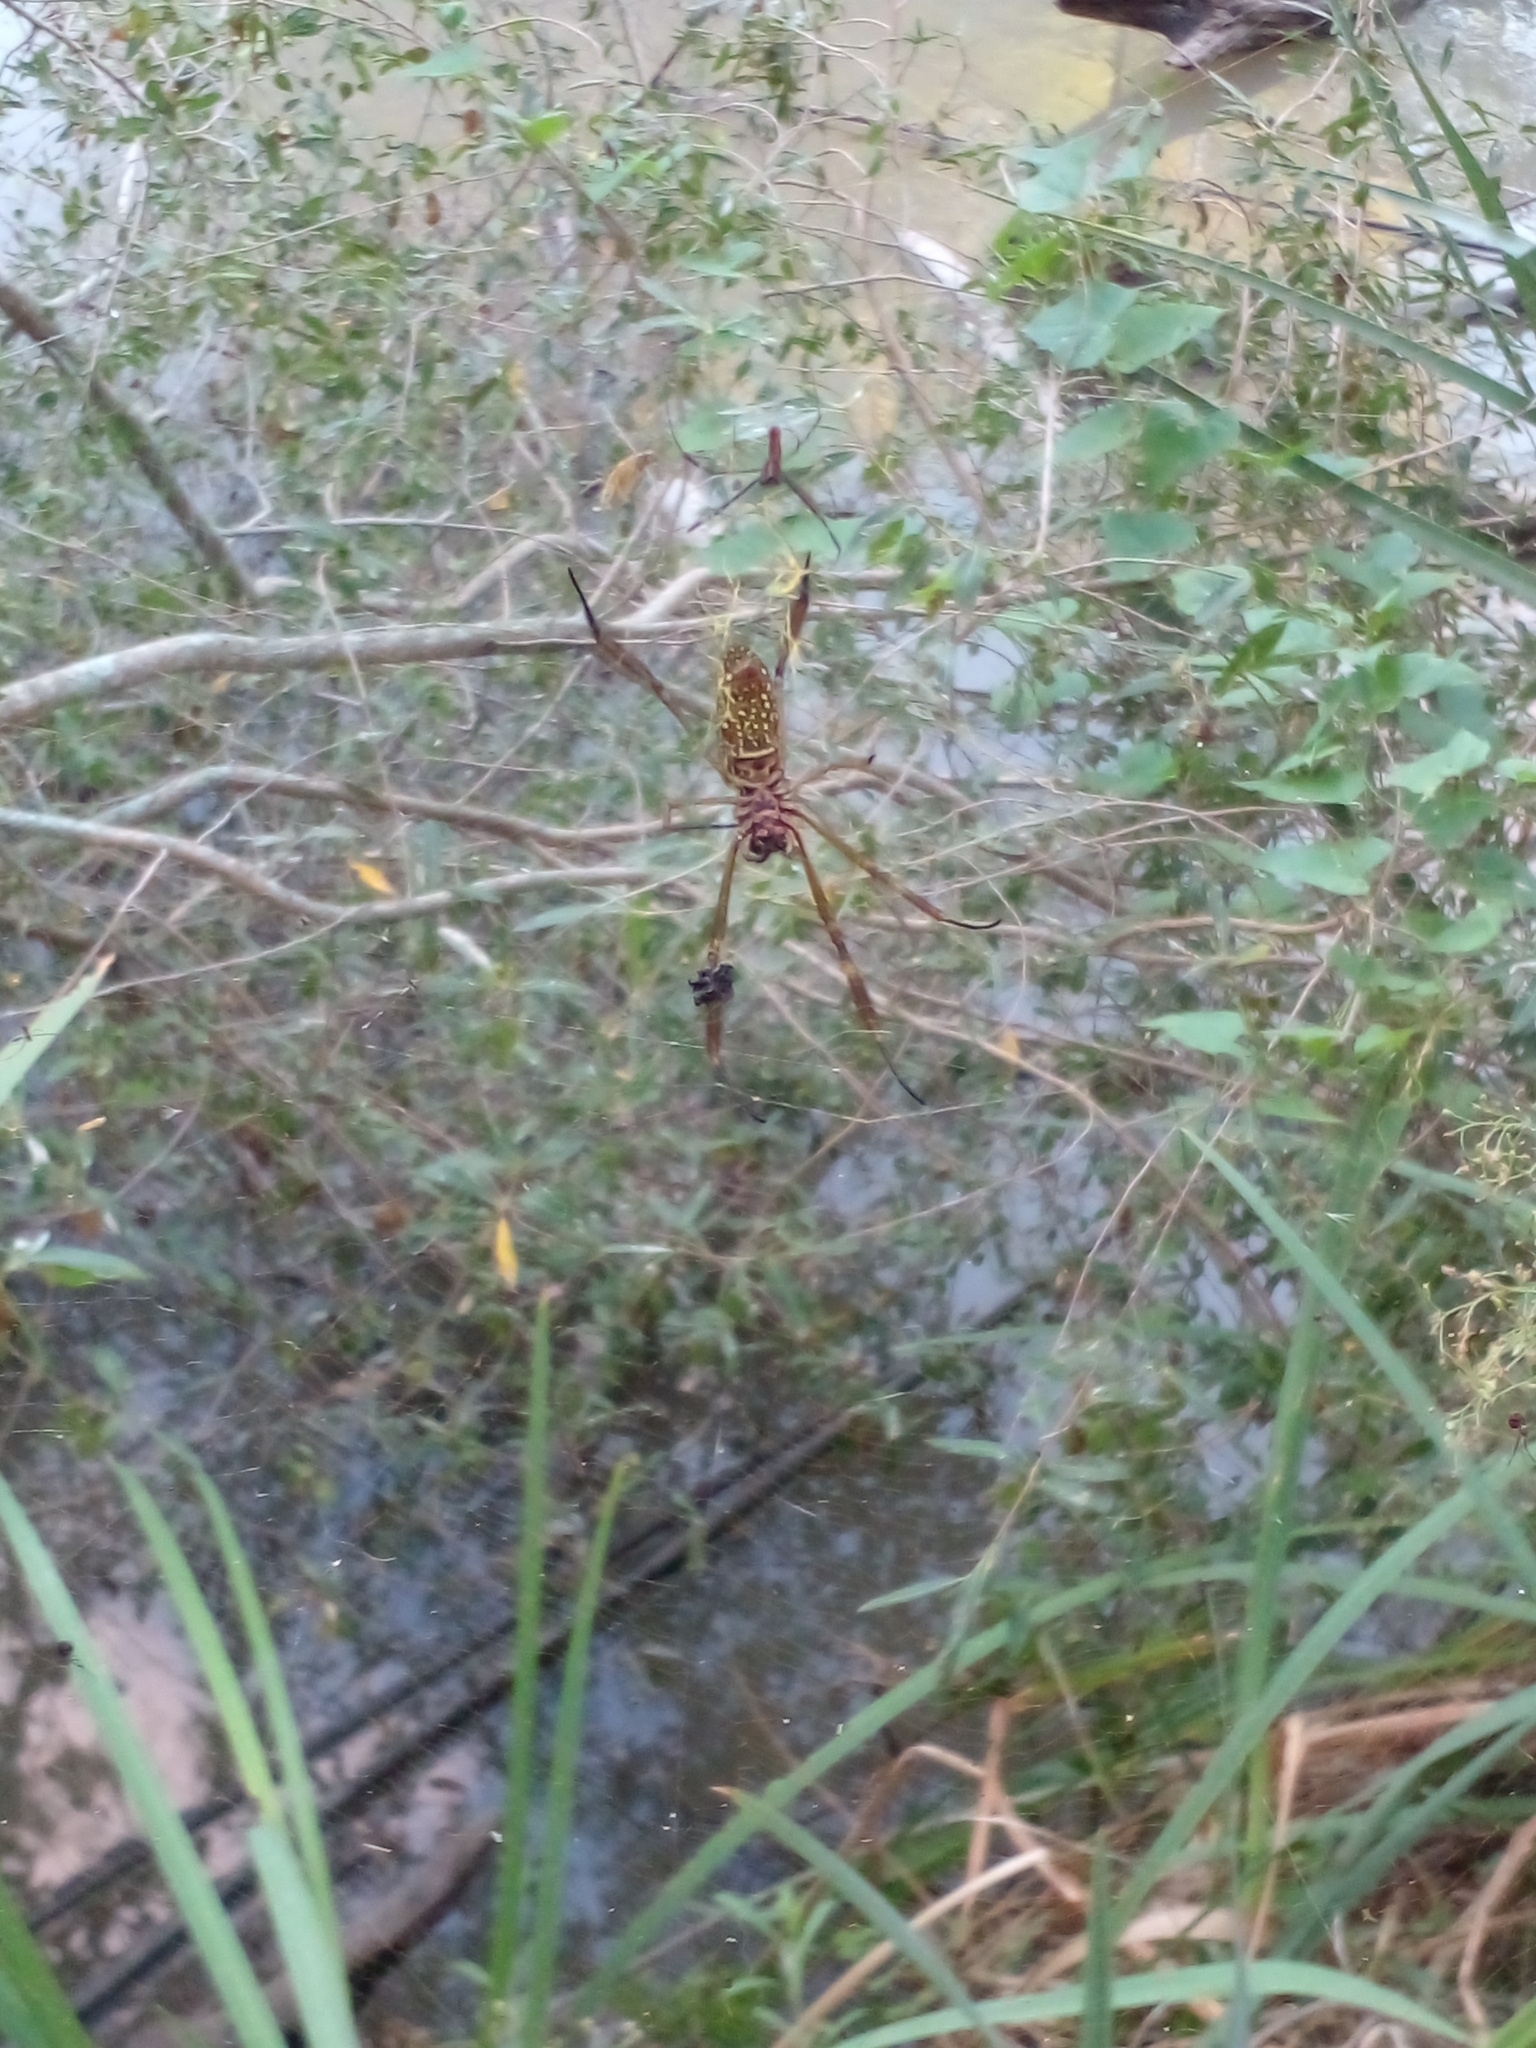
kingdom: Animalia
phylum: Arthropoda
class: Arachnida
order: Araneae
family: Araneidae
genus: Trichonephila
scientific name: Trichonephila clavipes
